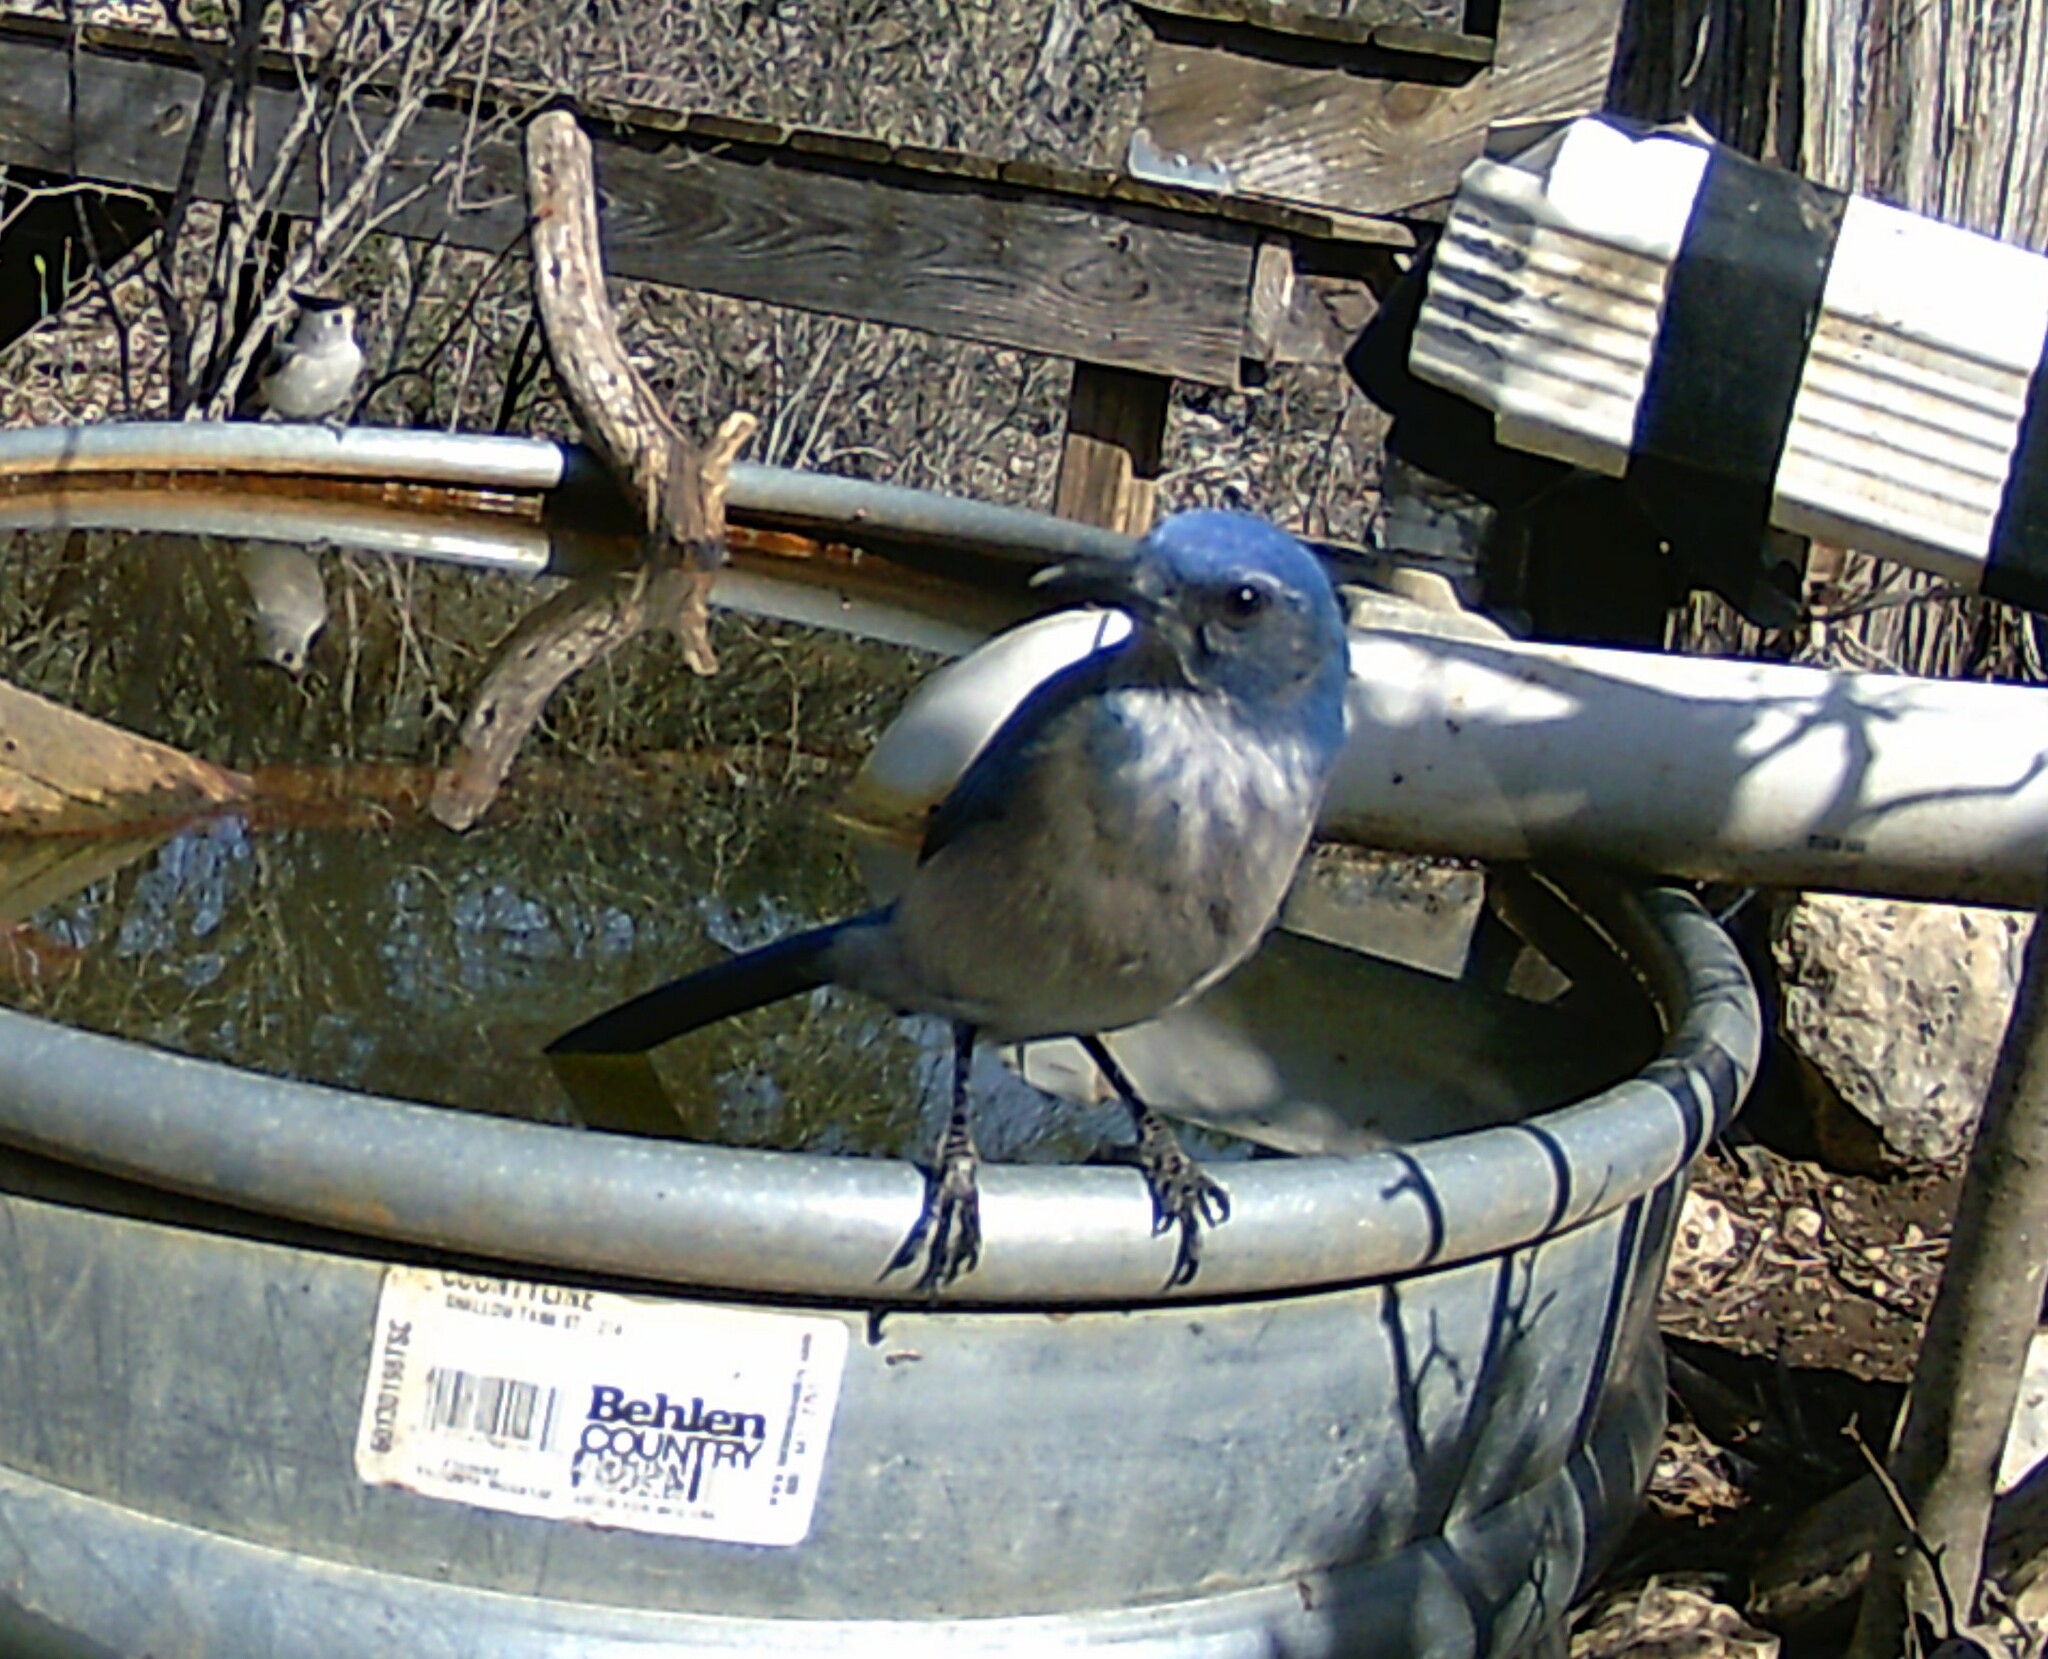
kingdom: Animalia
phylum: Chordata
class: Aves
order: Passeriformes
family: Corvidae
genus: Aphelocoma
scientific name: Aphelocoma woodhouseii
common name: Woodhouse's scrub-jay
